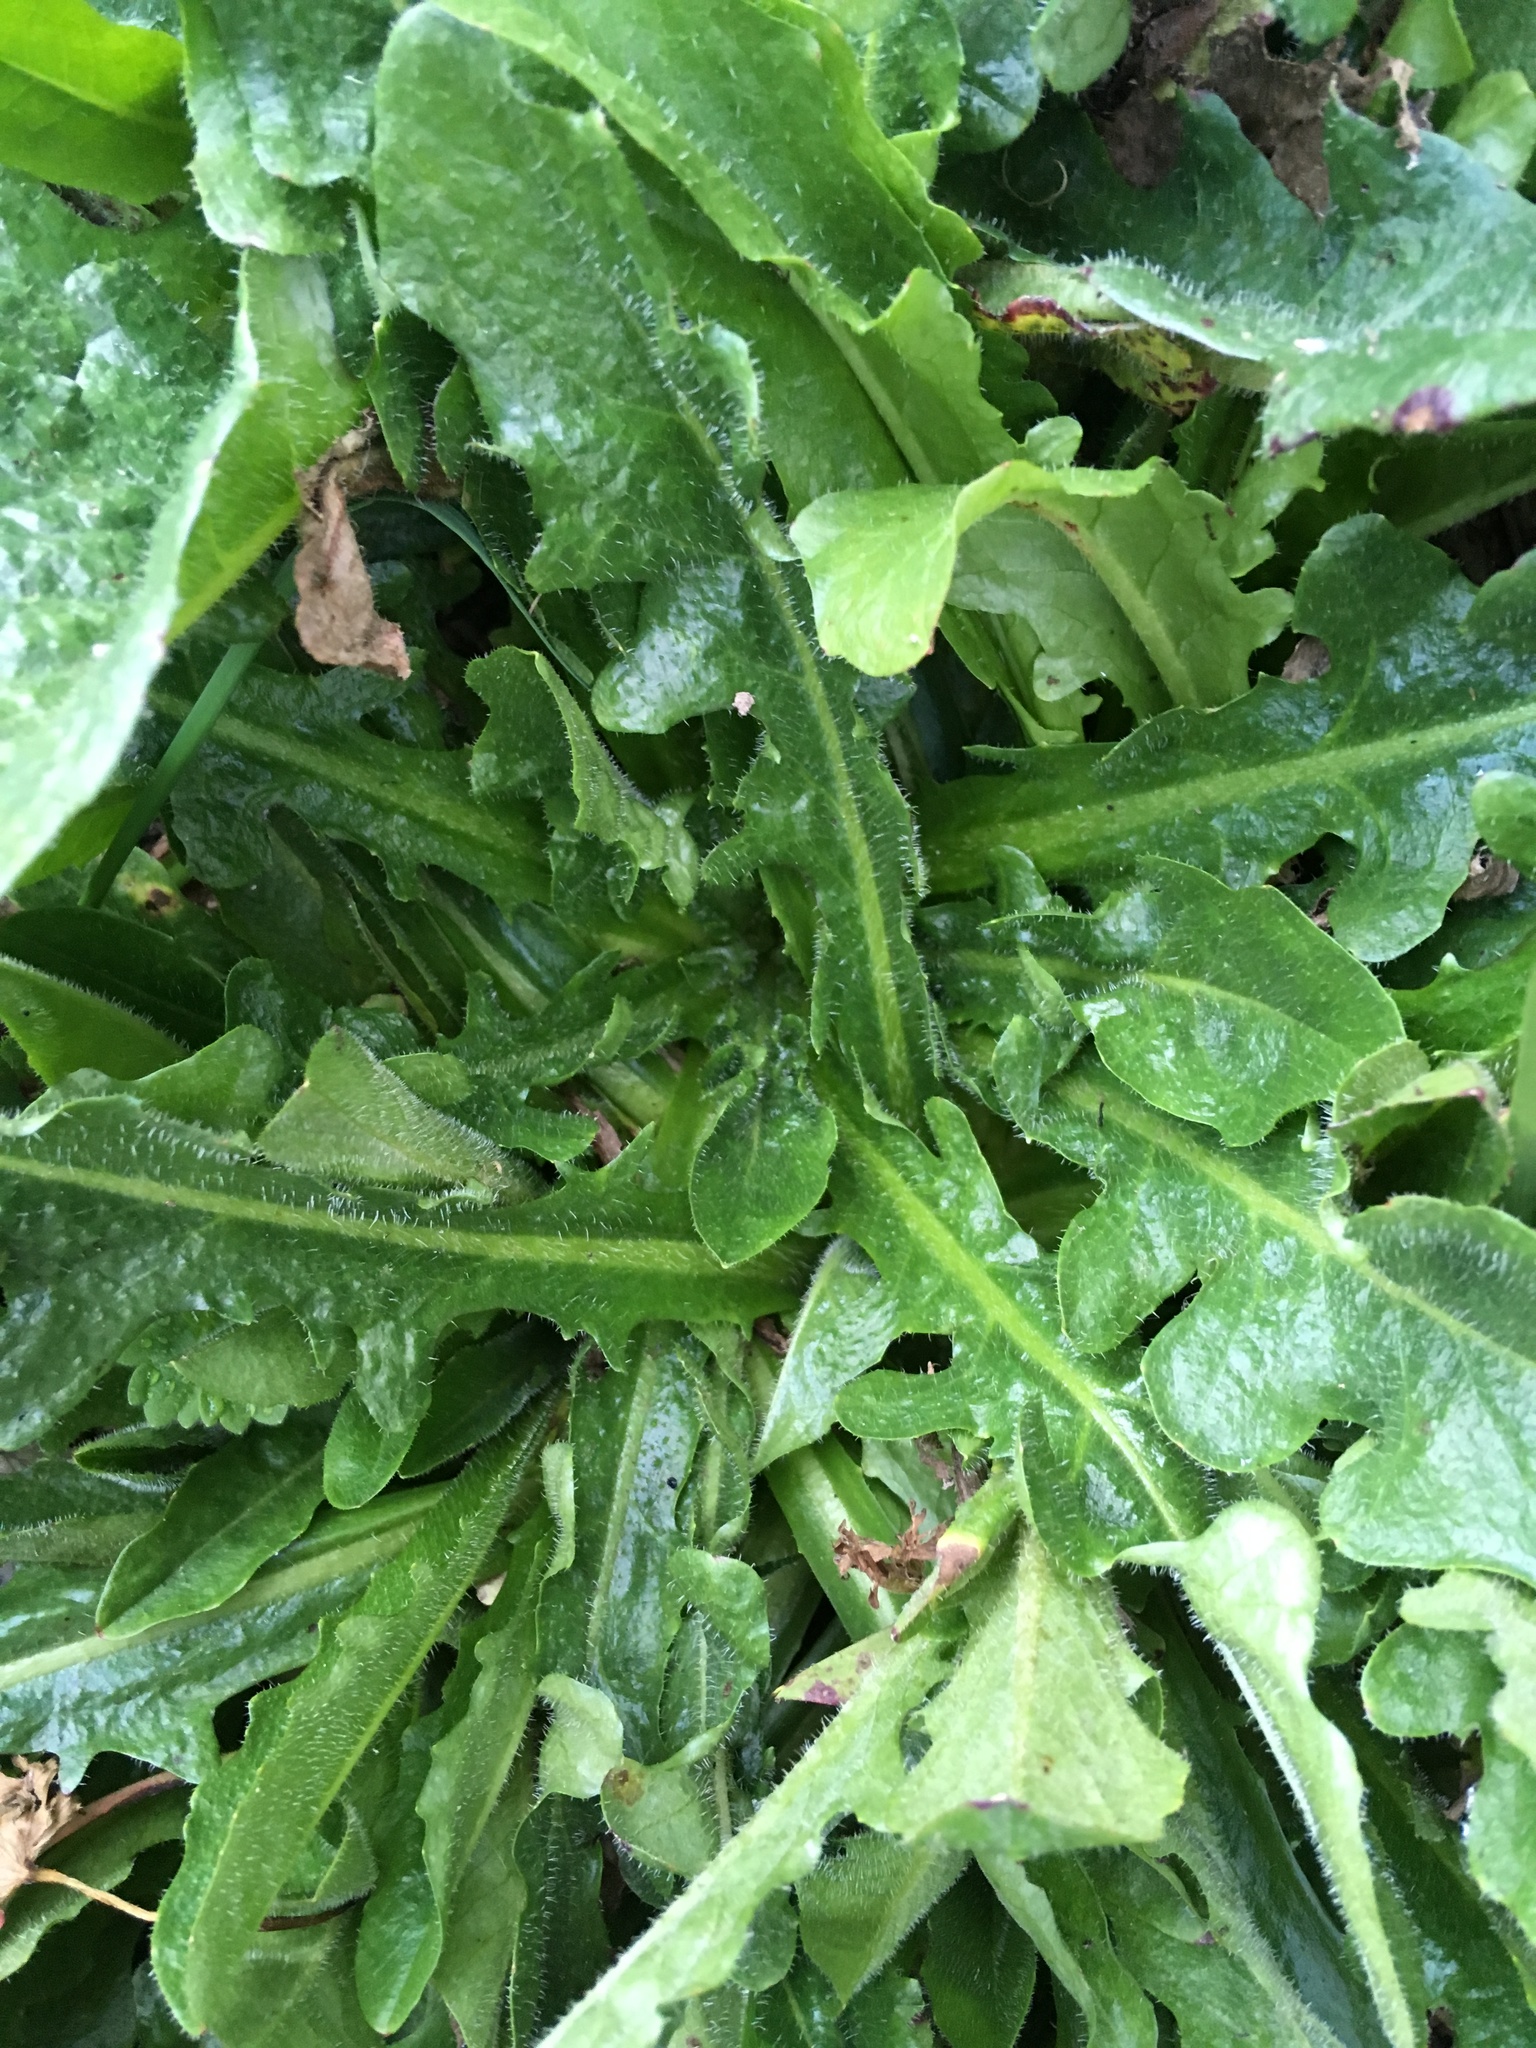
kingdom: Plantae
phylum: Tracheophyta
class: Magnoliopsida
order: Asterales
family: Asteraceae
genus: Hypochaeris
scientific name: Hypochaeris radicata
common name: Flatweed
